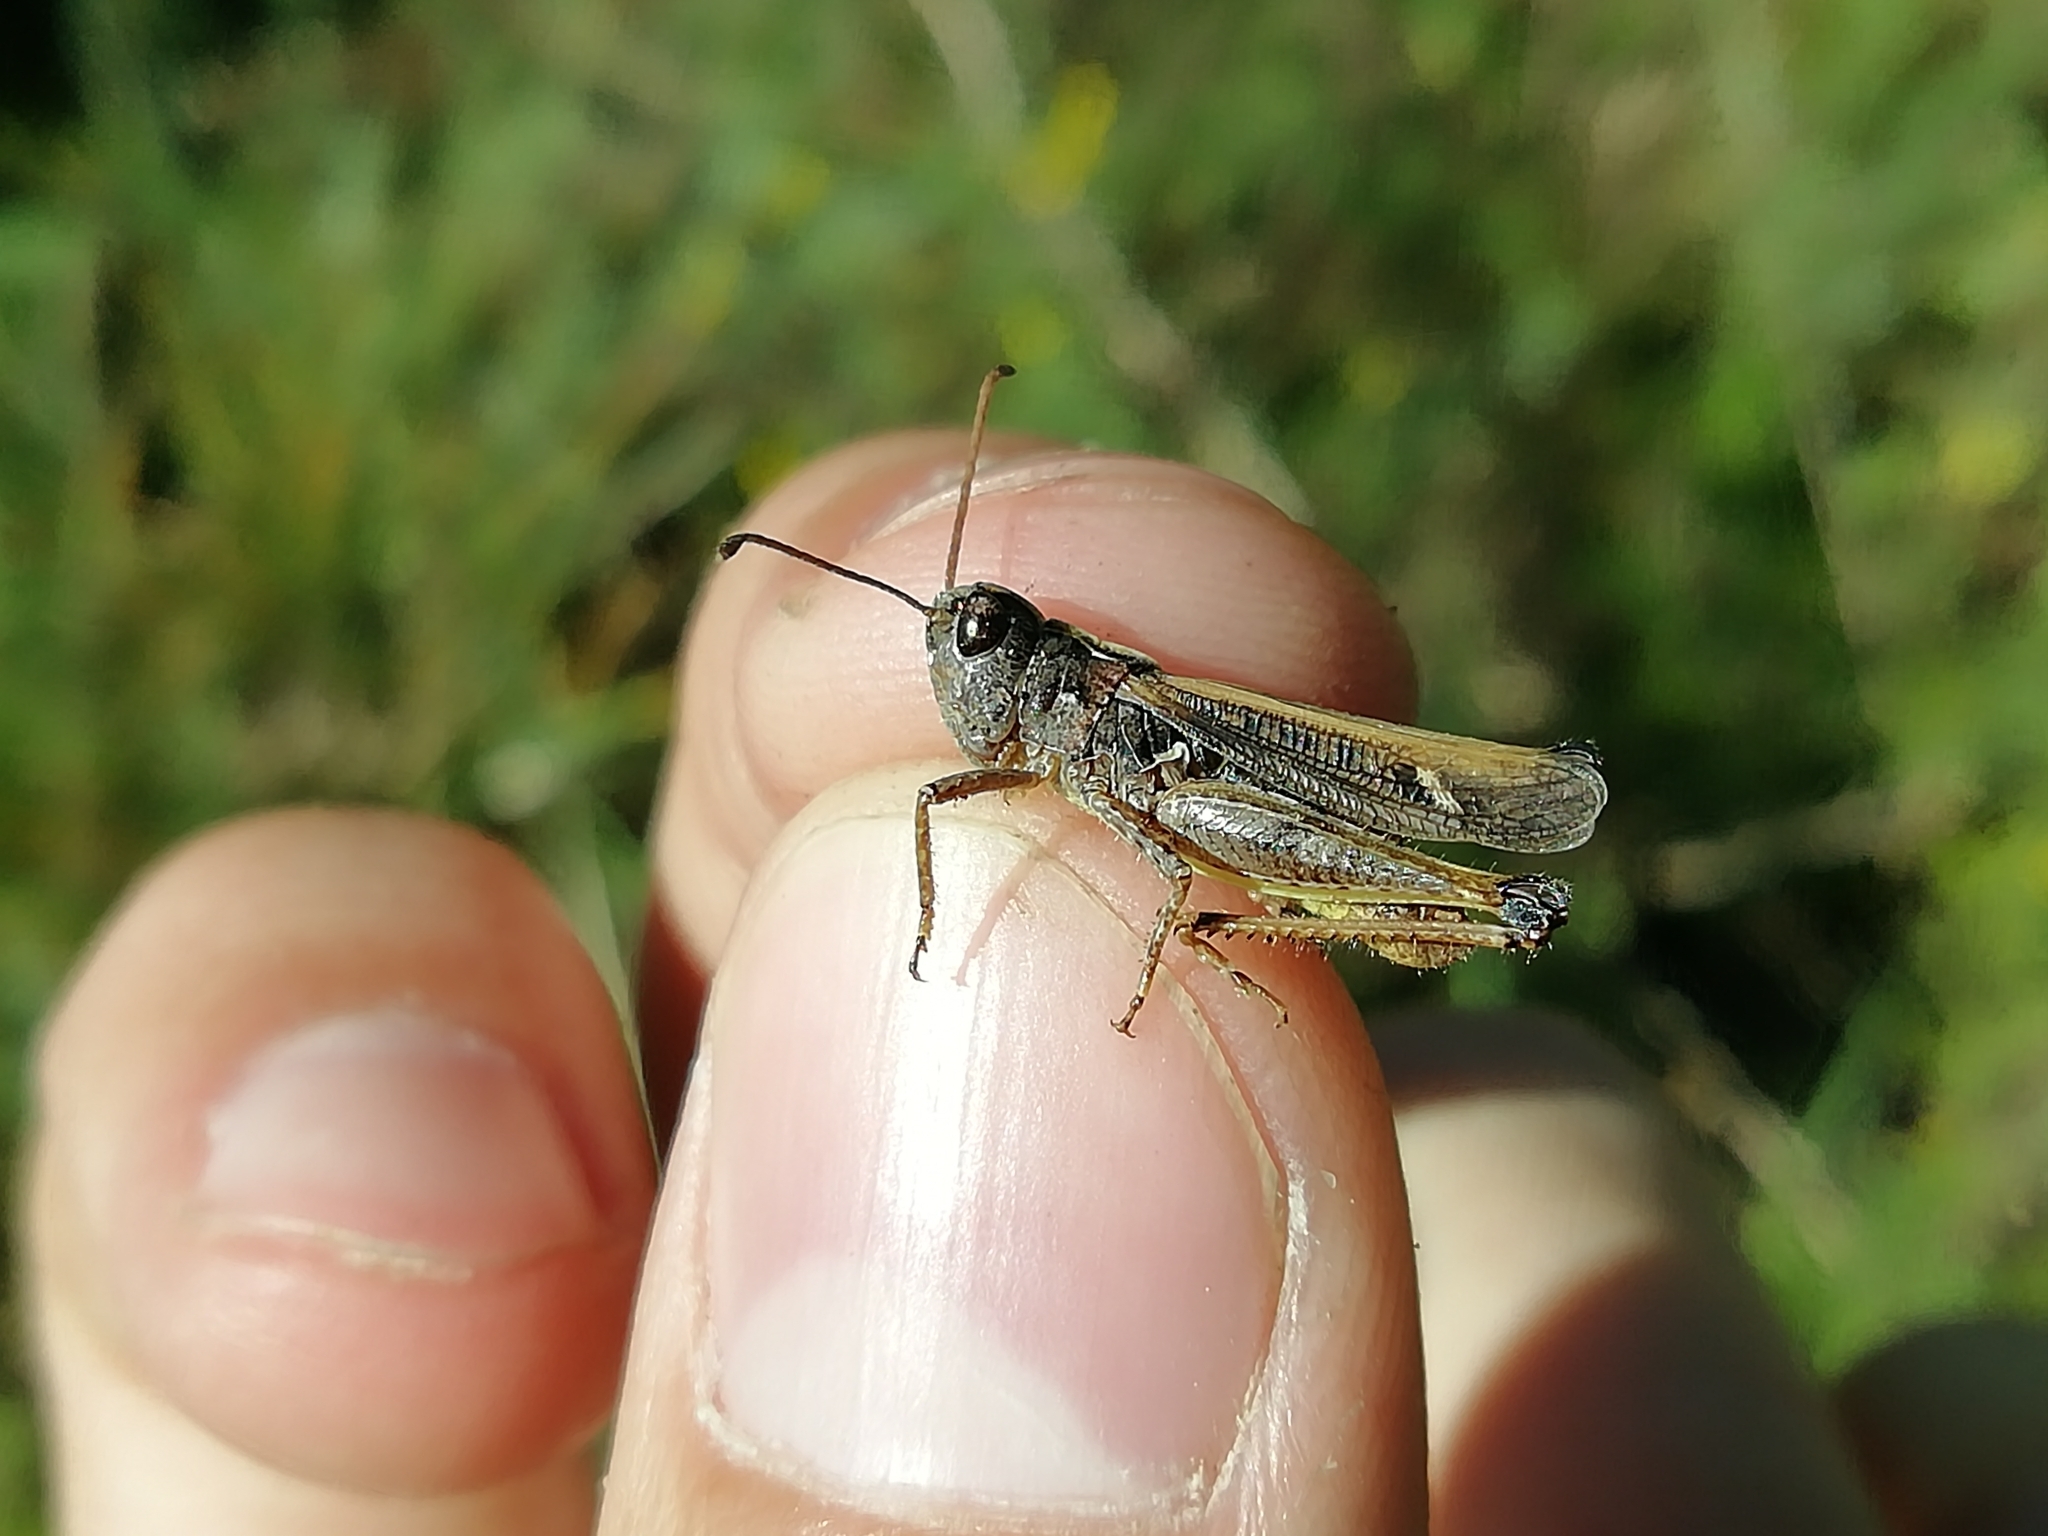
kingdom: Animalia
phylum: Arthropoda
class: Insecta
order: Orthoptera
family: Acrididae
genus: Myrmeleotettix
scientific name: Myrmeleotettix maculatus
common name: Mottled grasshopper
